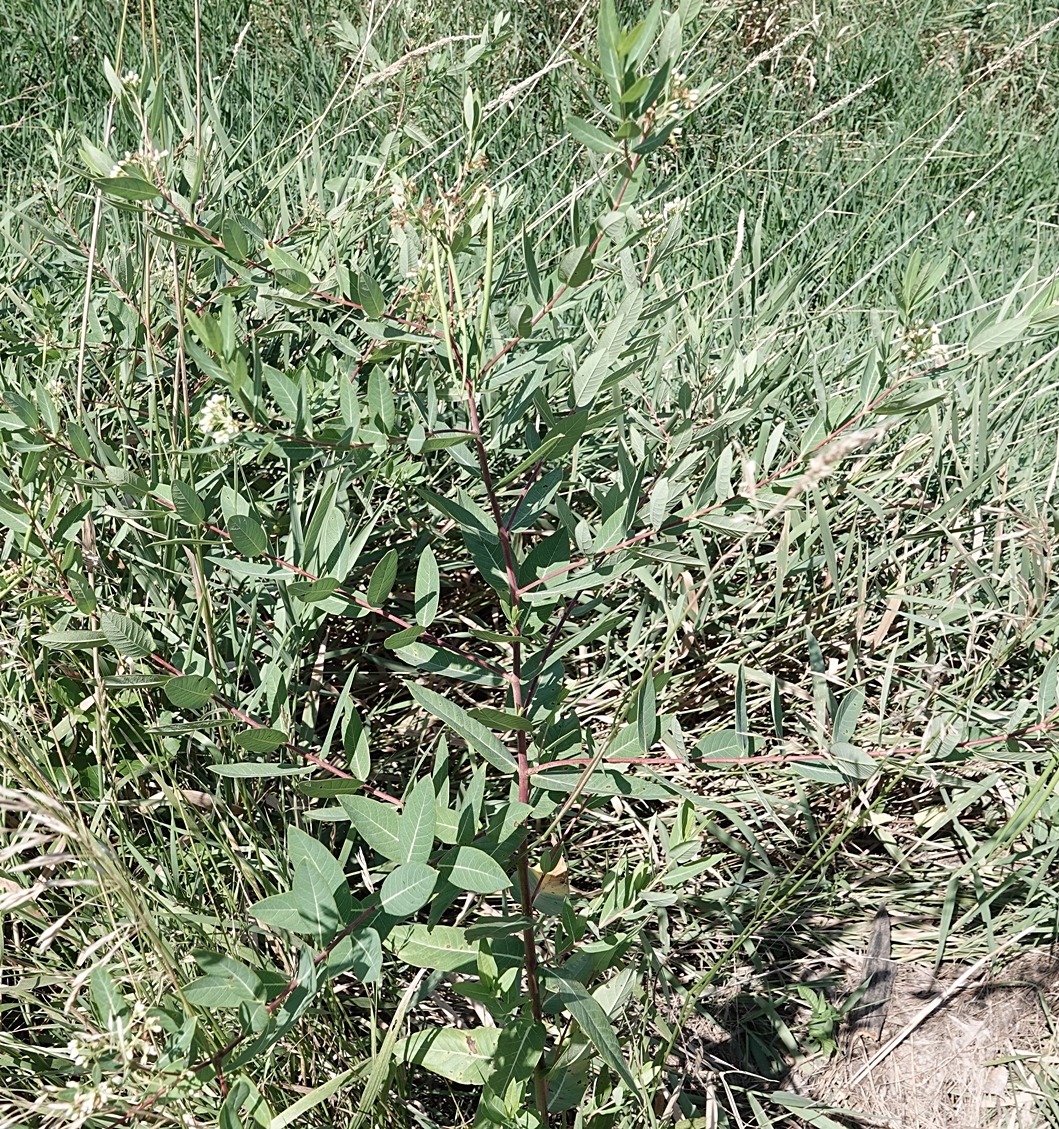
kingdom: Plantae
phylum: Tracheophyta
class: Magnoliopsida
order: Gentianales
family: Apocynaceae
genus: Apocynum
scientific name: Apocynum cannabinum
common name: Hemp dogbane
